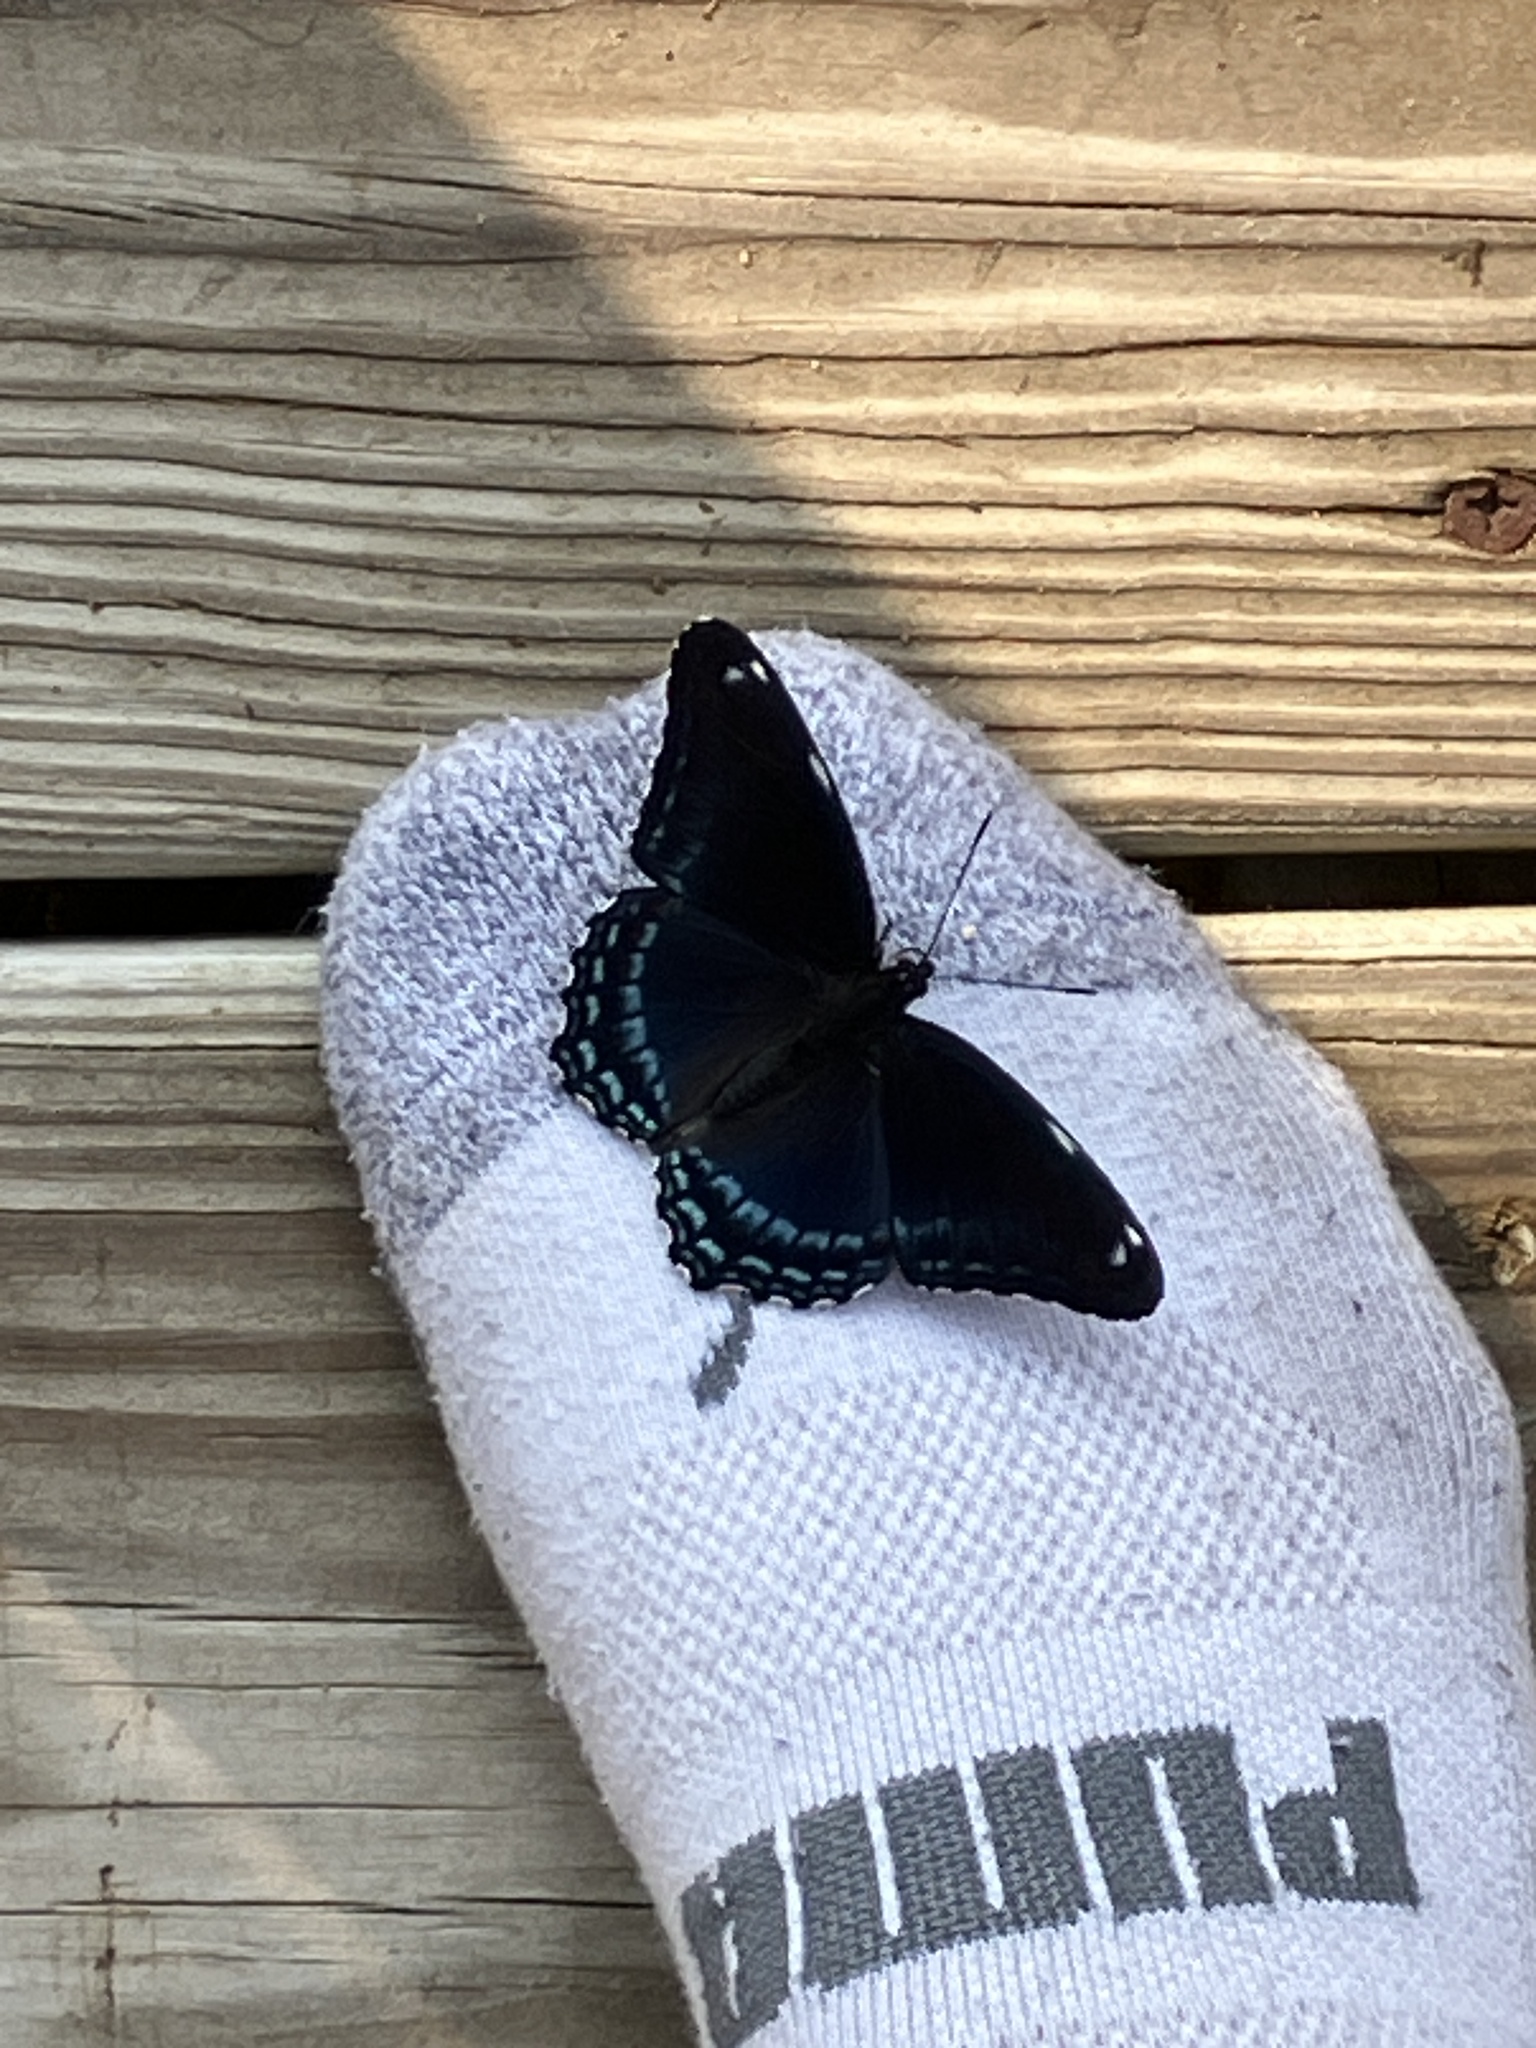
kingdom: Animalia
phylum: Arthropoda
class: Insecta
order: Lepidoptera
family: Nymphalidae
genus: Limenitis
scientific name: Limenitis arthemis
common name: Red-spotted admiral
